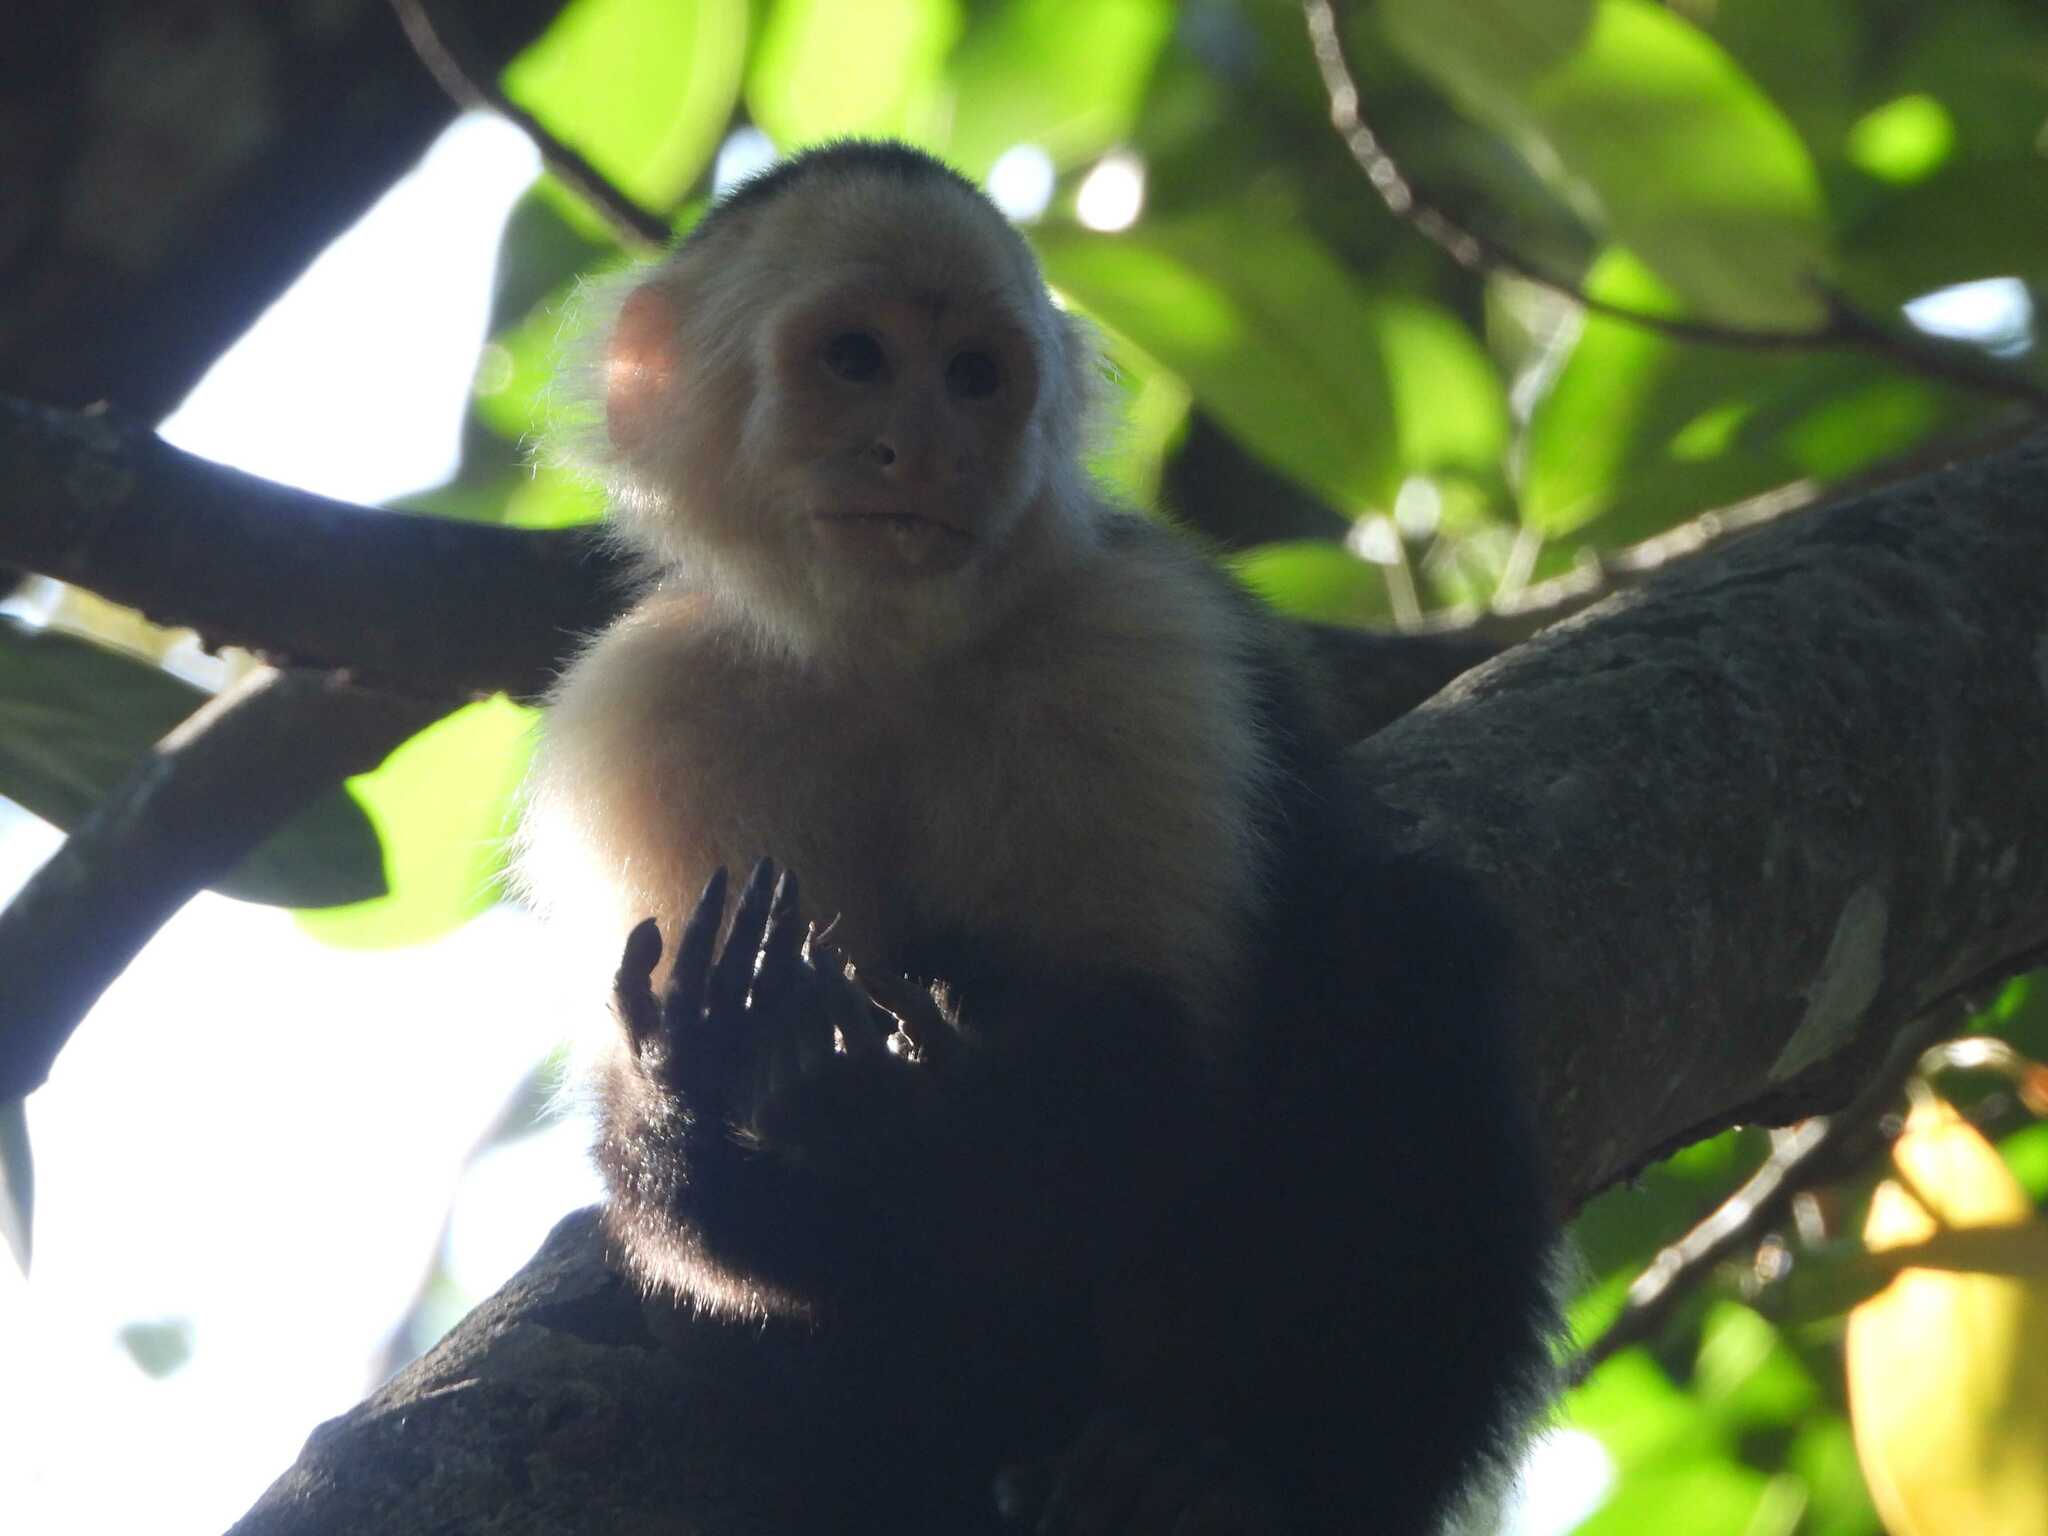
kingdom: Animalia
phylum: Chordata
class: Mammalia
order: Primates
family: Cebidae
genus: Cebus
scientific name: Cebus imitator
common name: Panamanian white-faced capuchin
